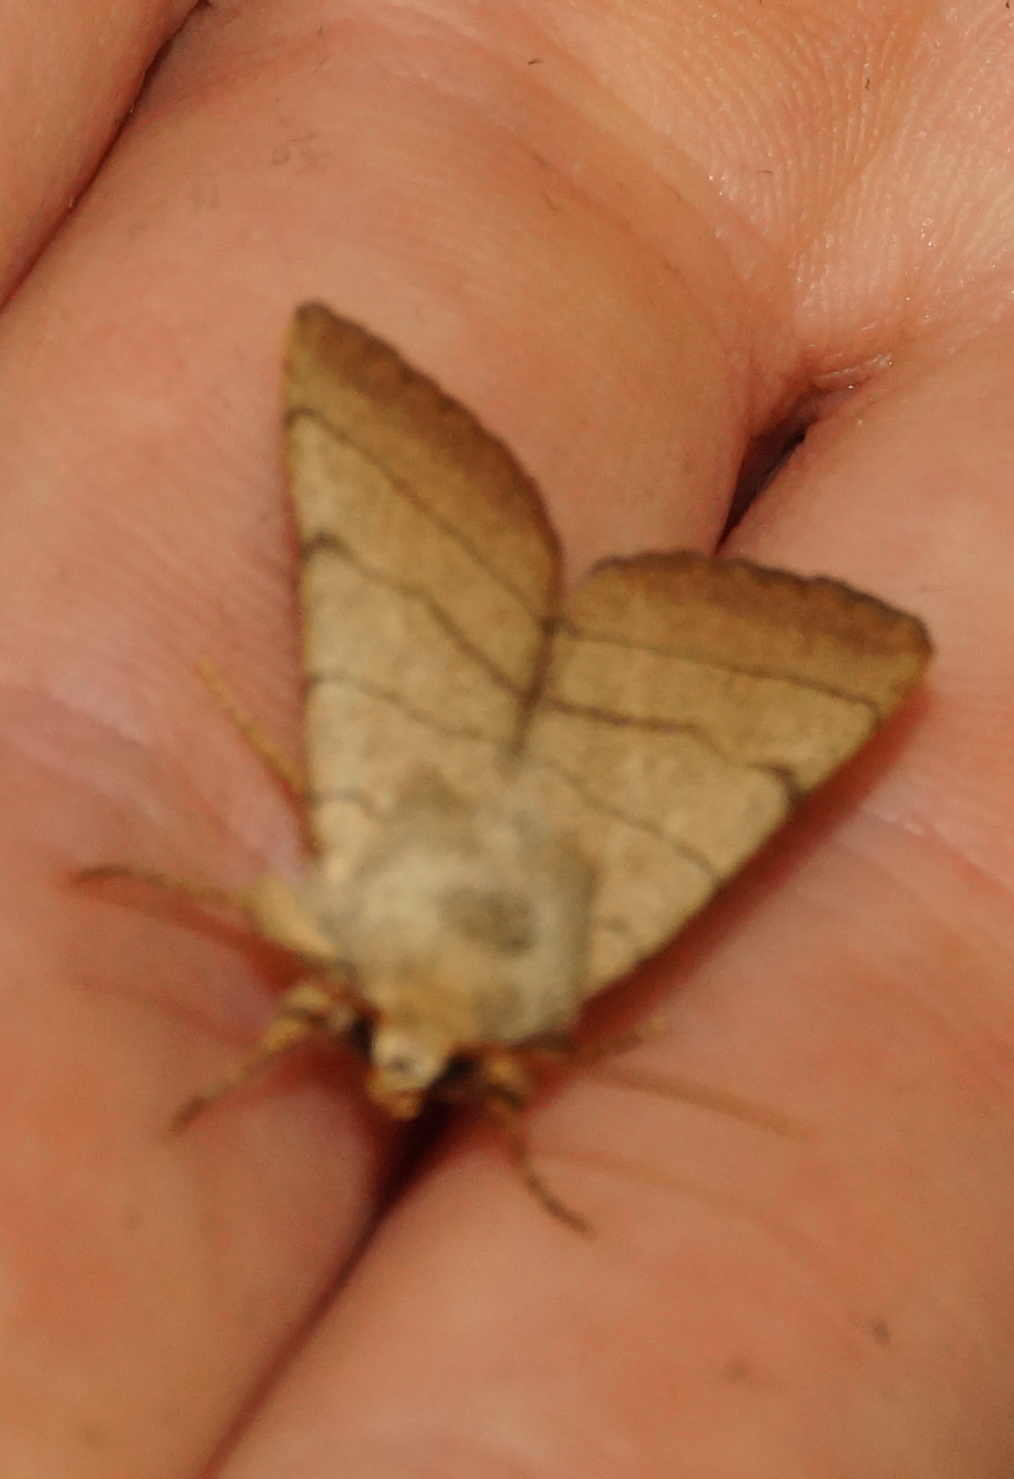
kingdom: Animalia
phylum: Arthropoda
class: Insecta
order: Lepidoptera
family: Noctuidae
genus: Charanyca
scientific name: Charanyca trigrammica
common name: Treble lines
